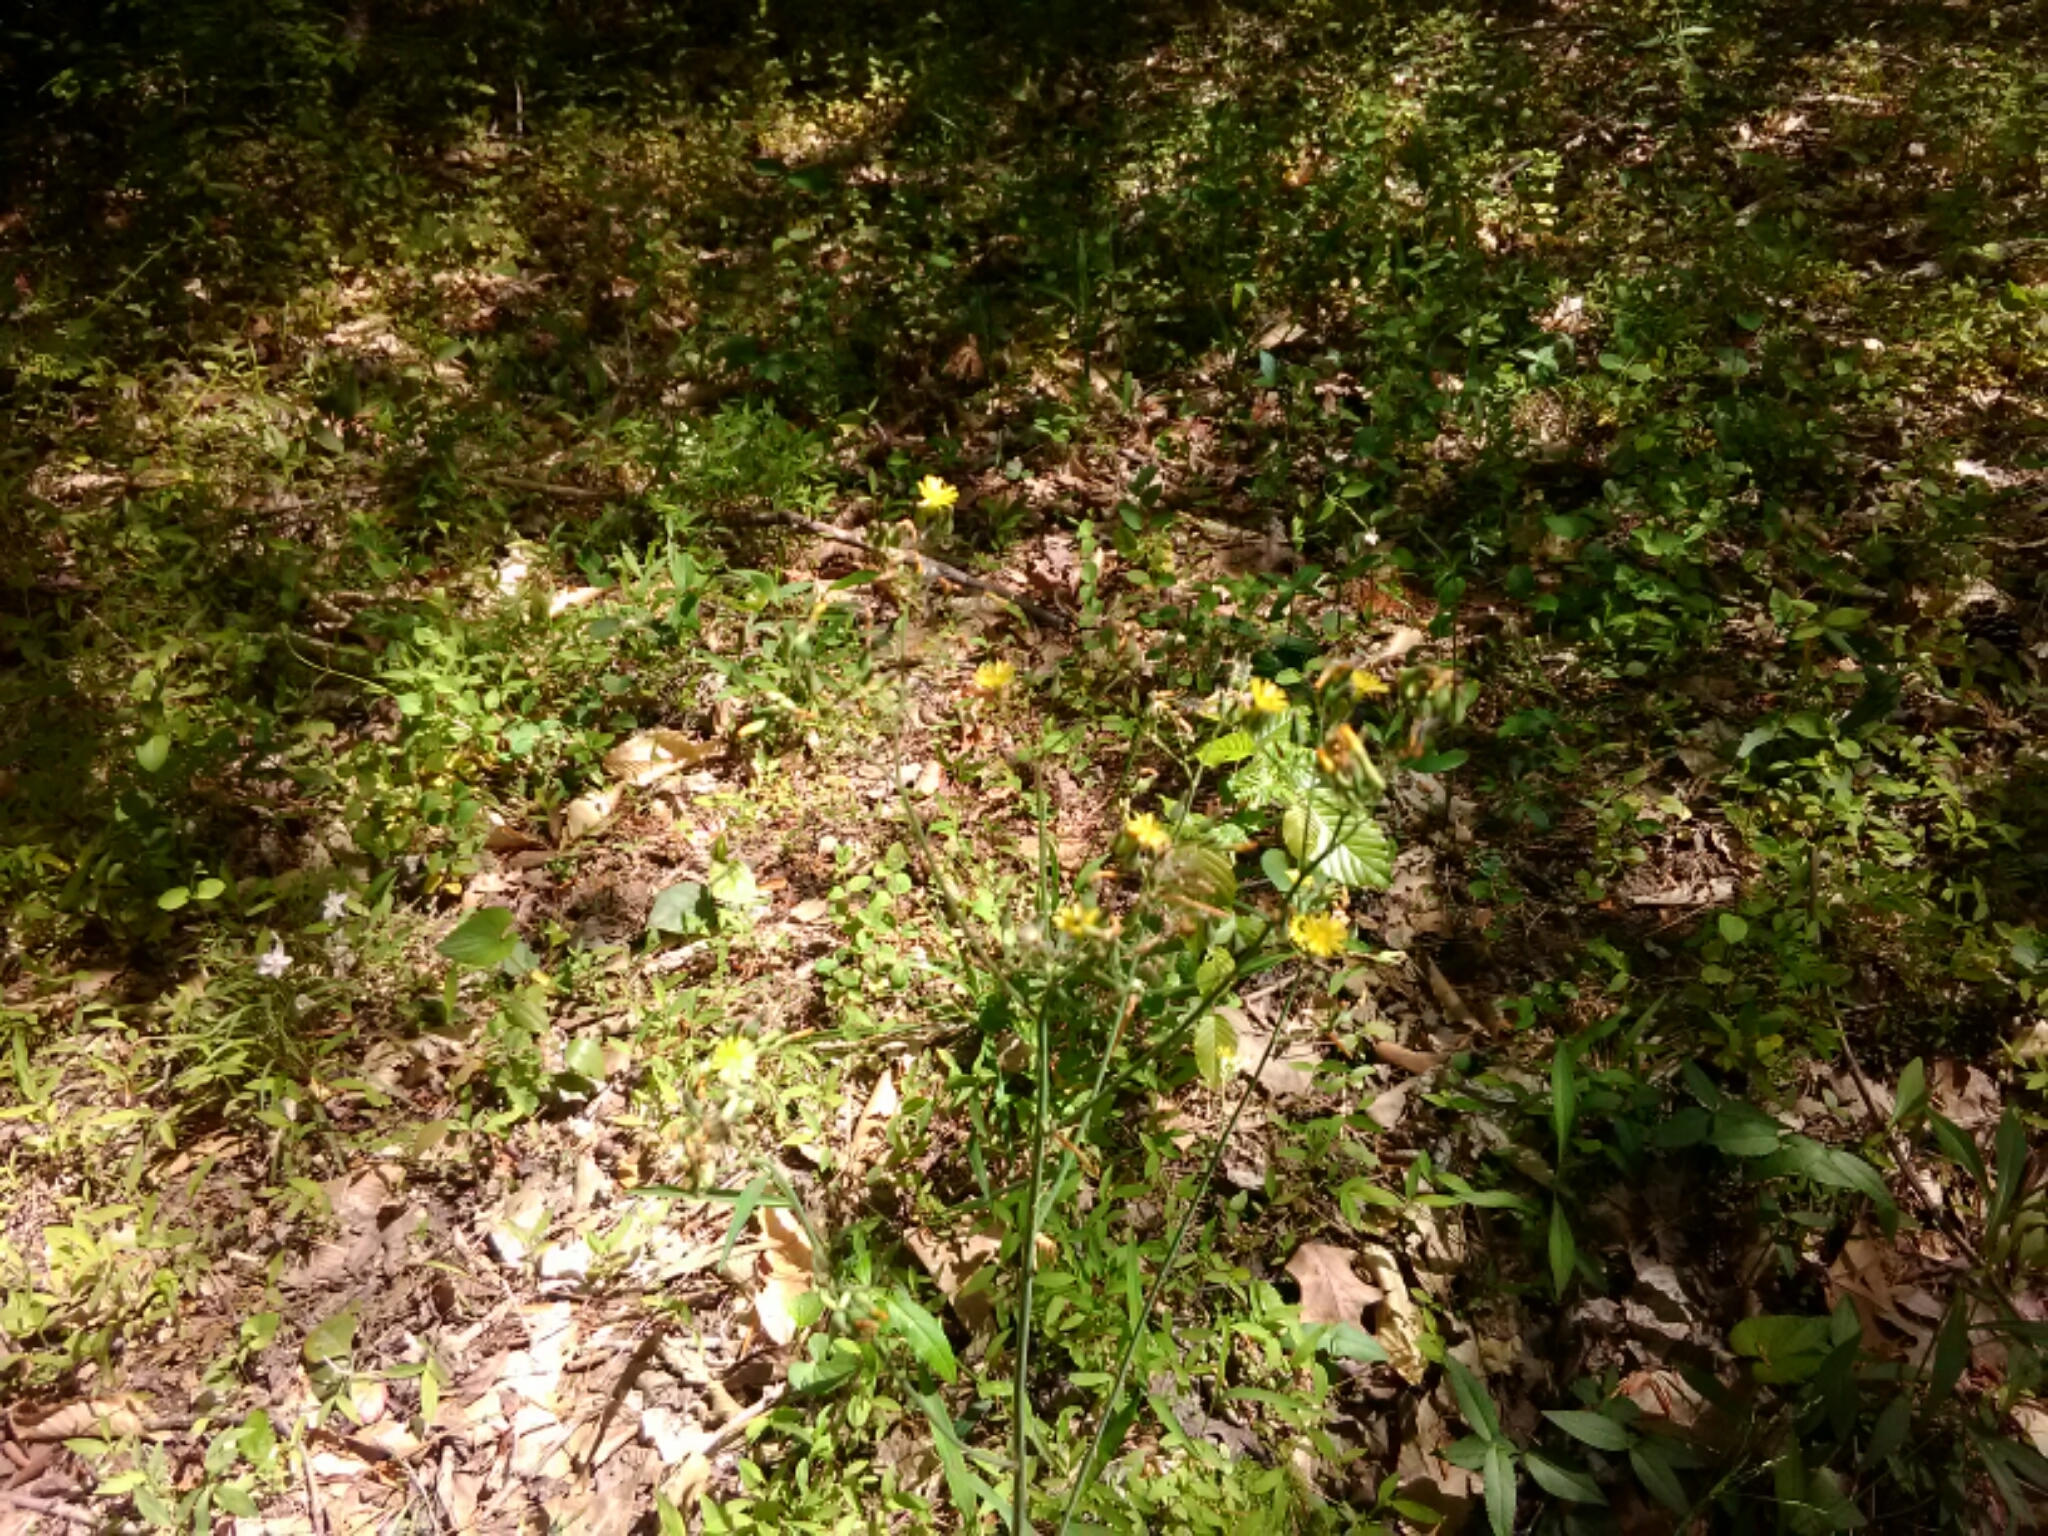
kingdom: Plantae
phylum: Tracheophyta
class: Magnoliopsida
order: Asterales
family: Asteraceae
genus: Youngia
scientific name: Youngia japonica
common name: Oriental false hawksbeard
